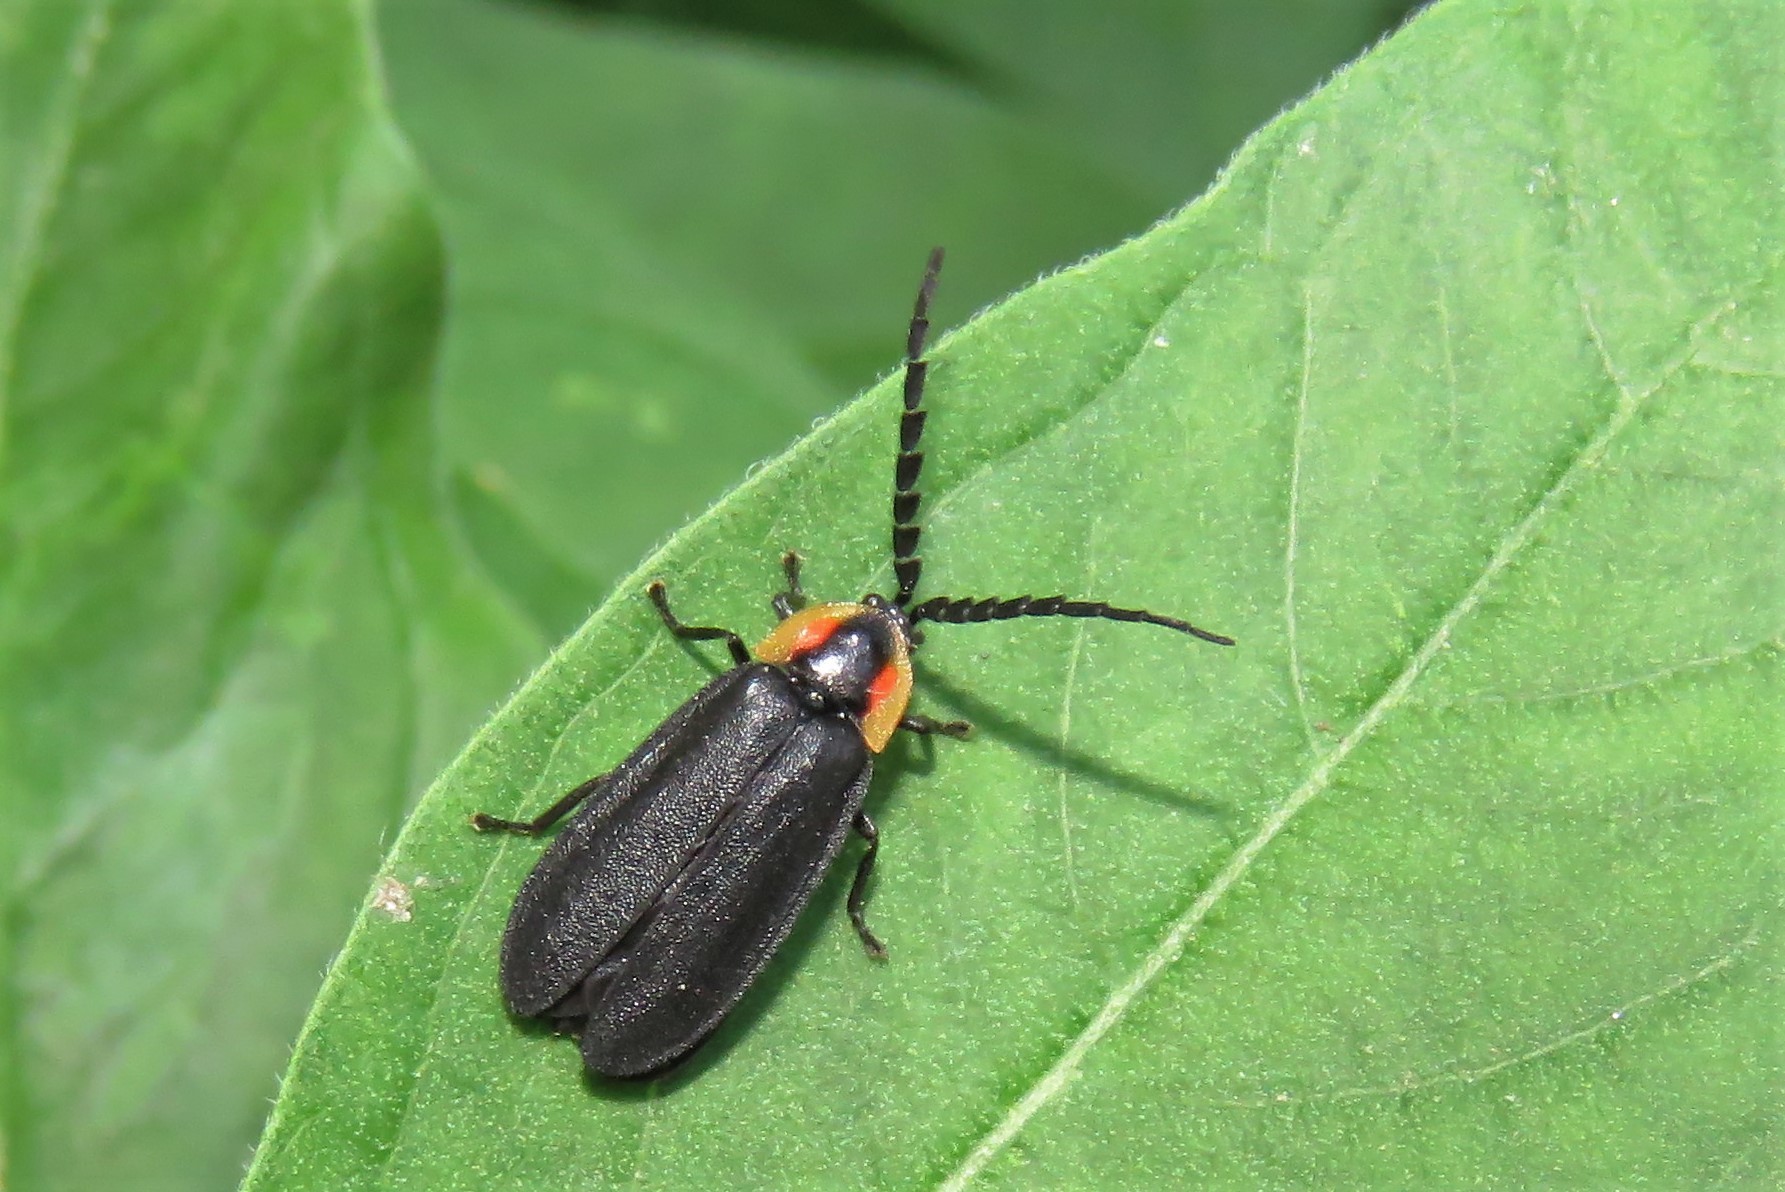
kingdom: Animalia
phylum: Arthropoda
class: Insecta
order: Coleoptera
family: Lampyridae
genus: Lucidota
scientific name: Lucidota atra
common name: Black firefly
